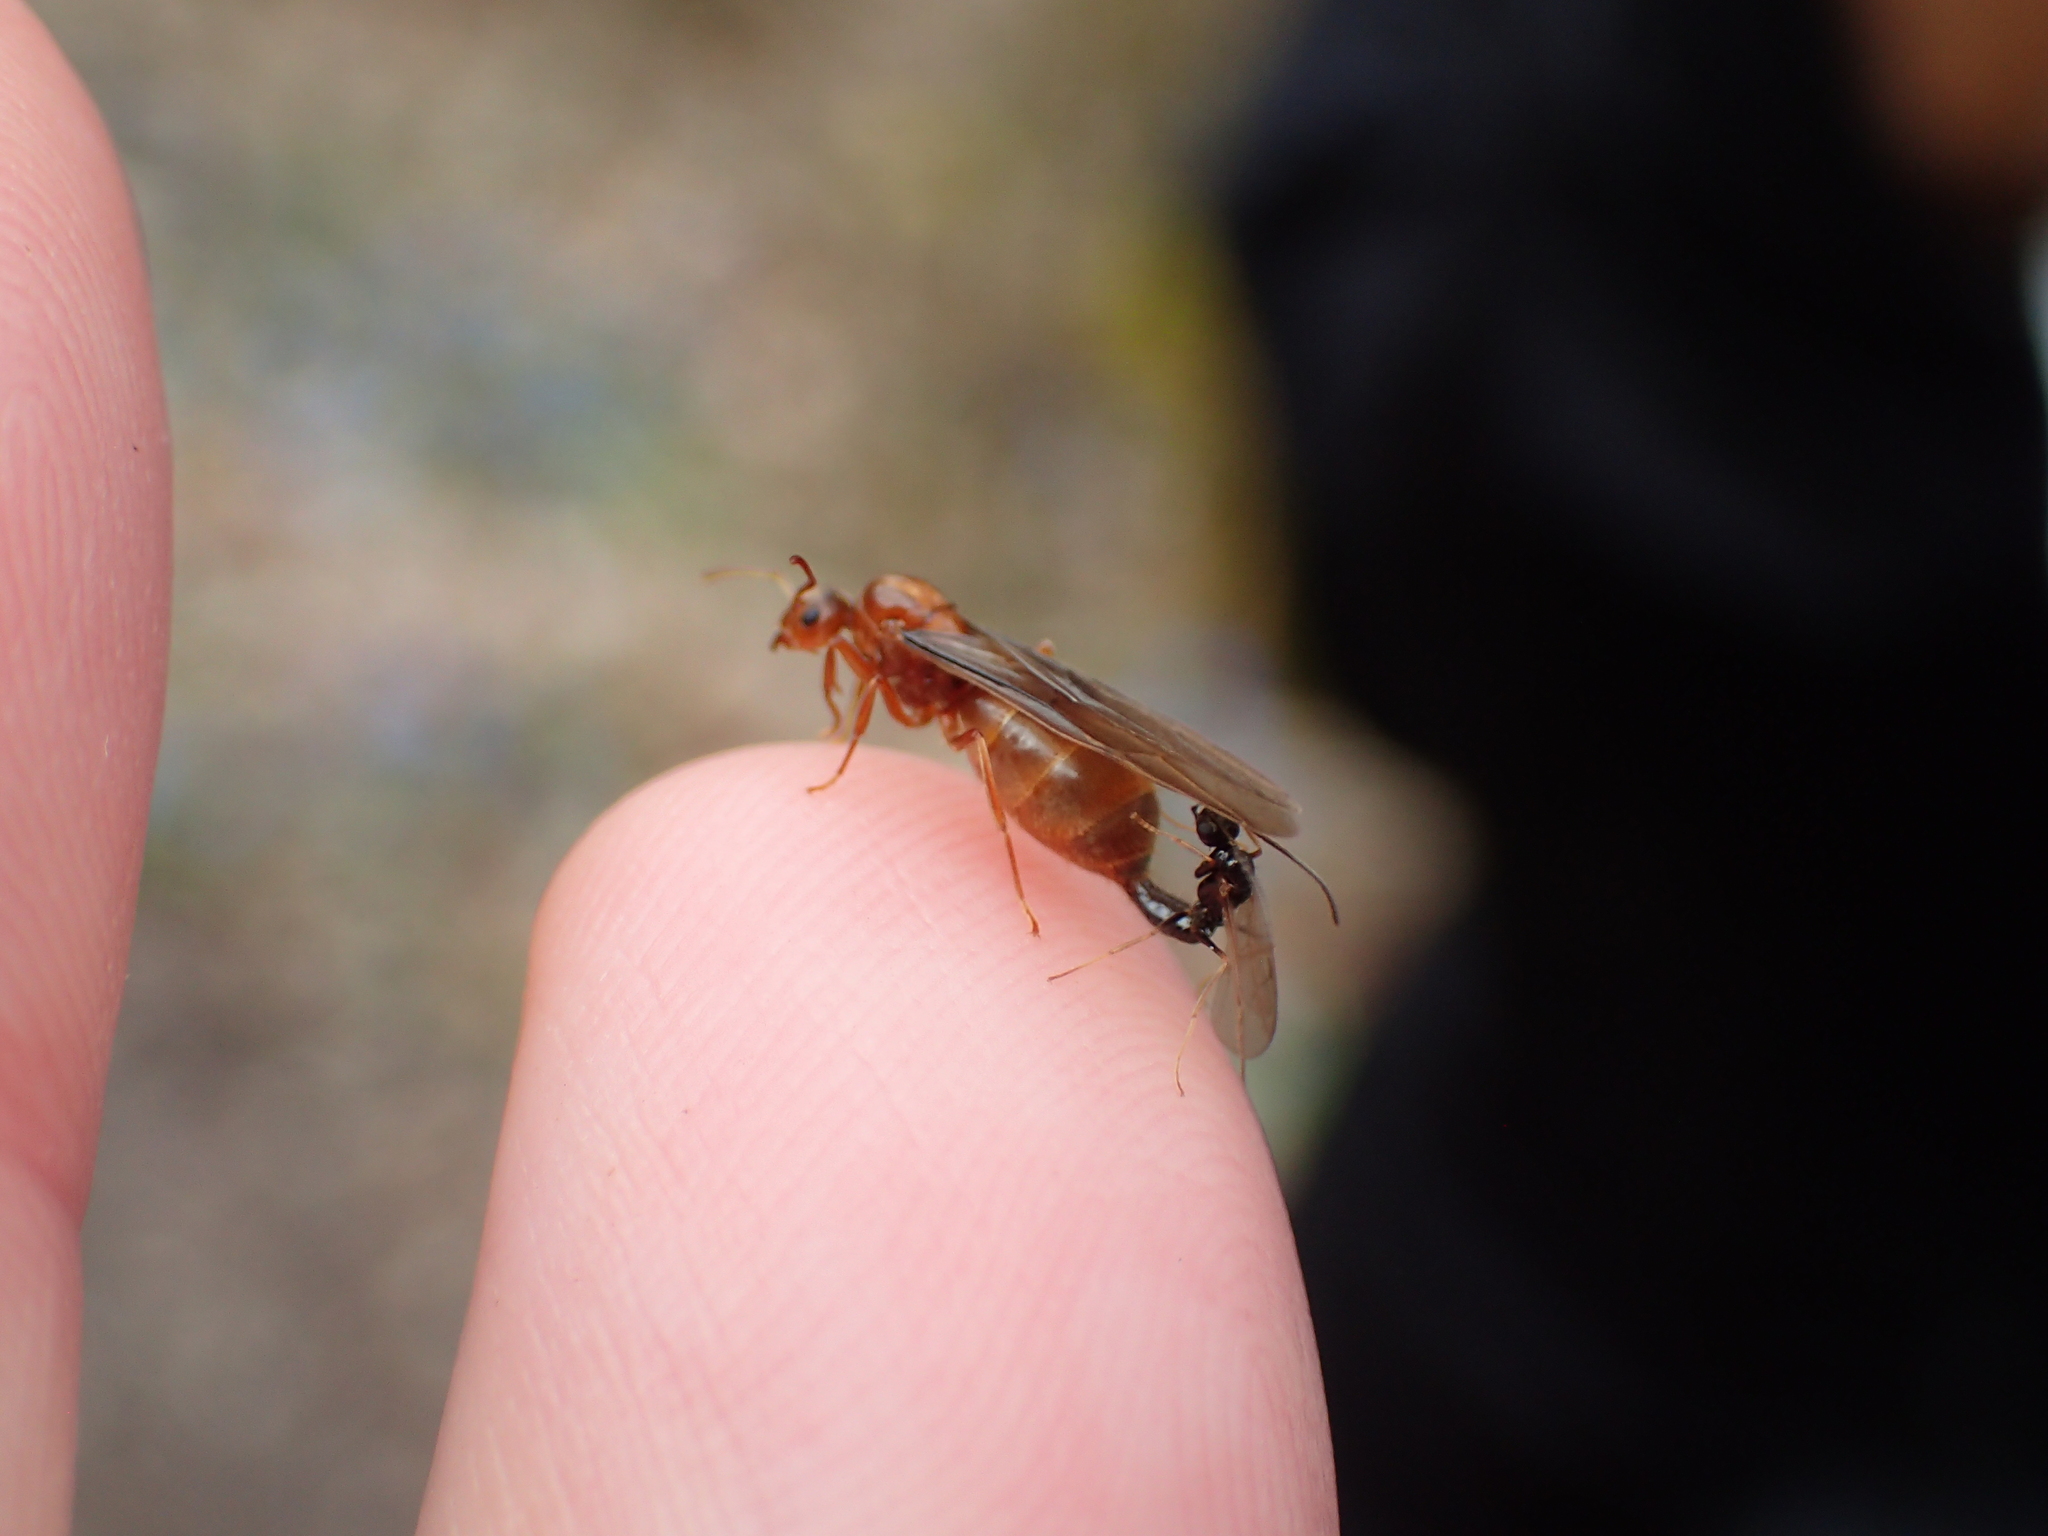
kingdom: Animalia
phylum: Arthropoda
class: Insecta
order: Hymenoptera
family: Formicidae
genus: Prenolepis
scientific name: Prenolepis imparis
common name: Small honey ant
